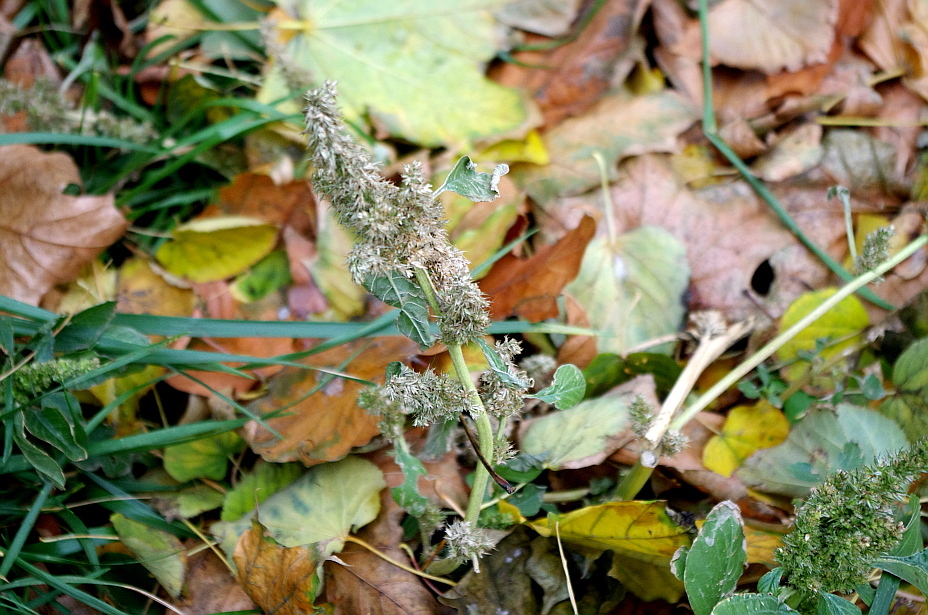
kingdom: Plantae
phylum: Tracheophyta
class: Magnoliopsida
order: Caryophyllales
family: Amaranthaceae
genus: Amaranthus
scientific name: Amaranthus retroflexus
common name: Redroot amaranth
